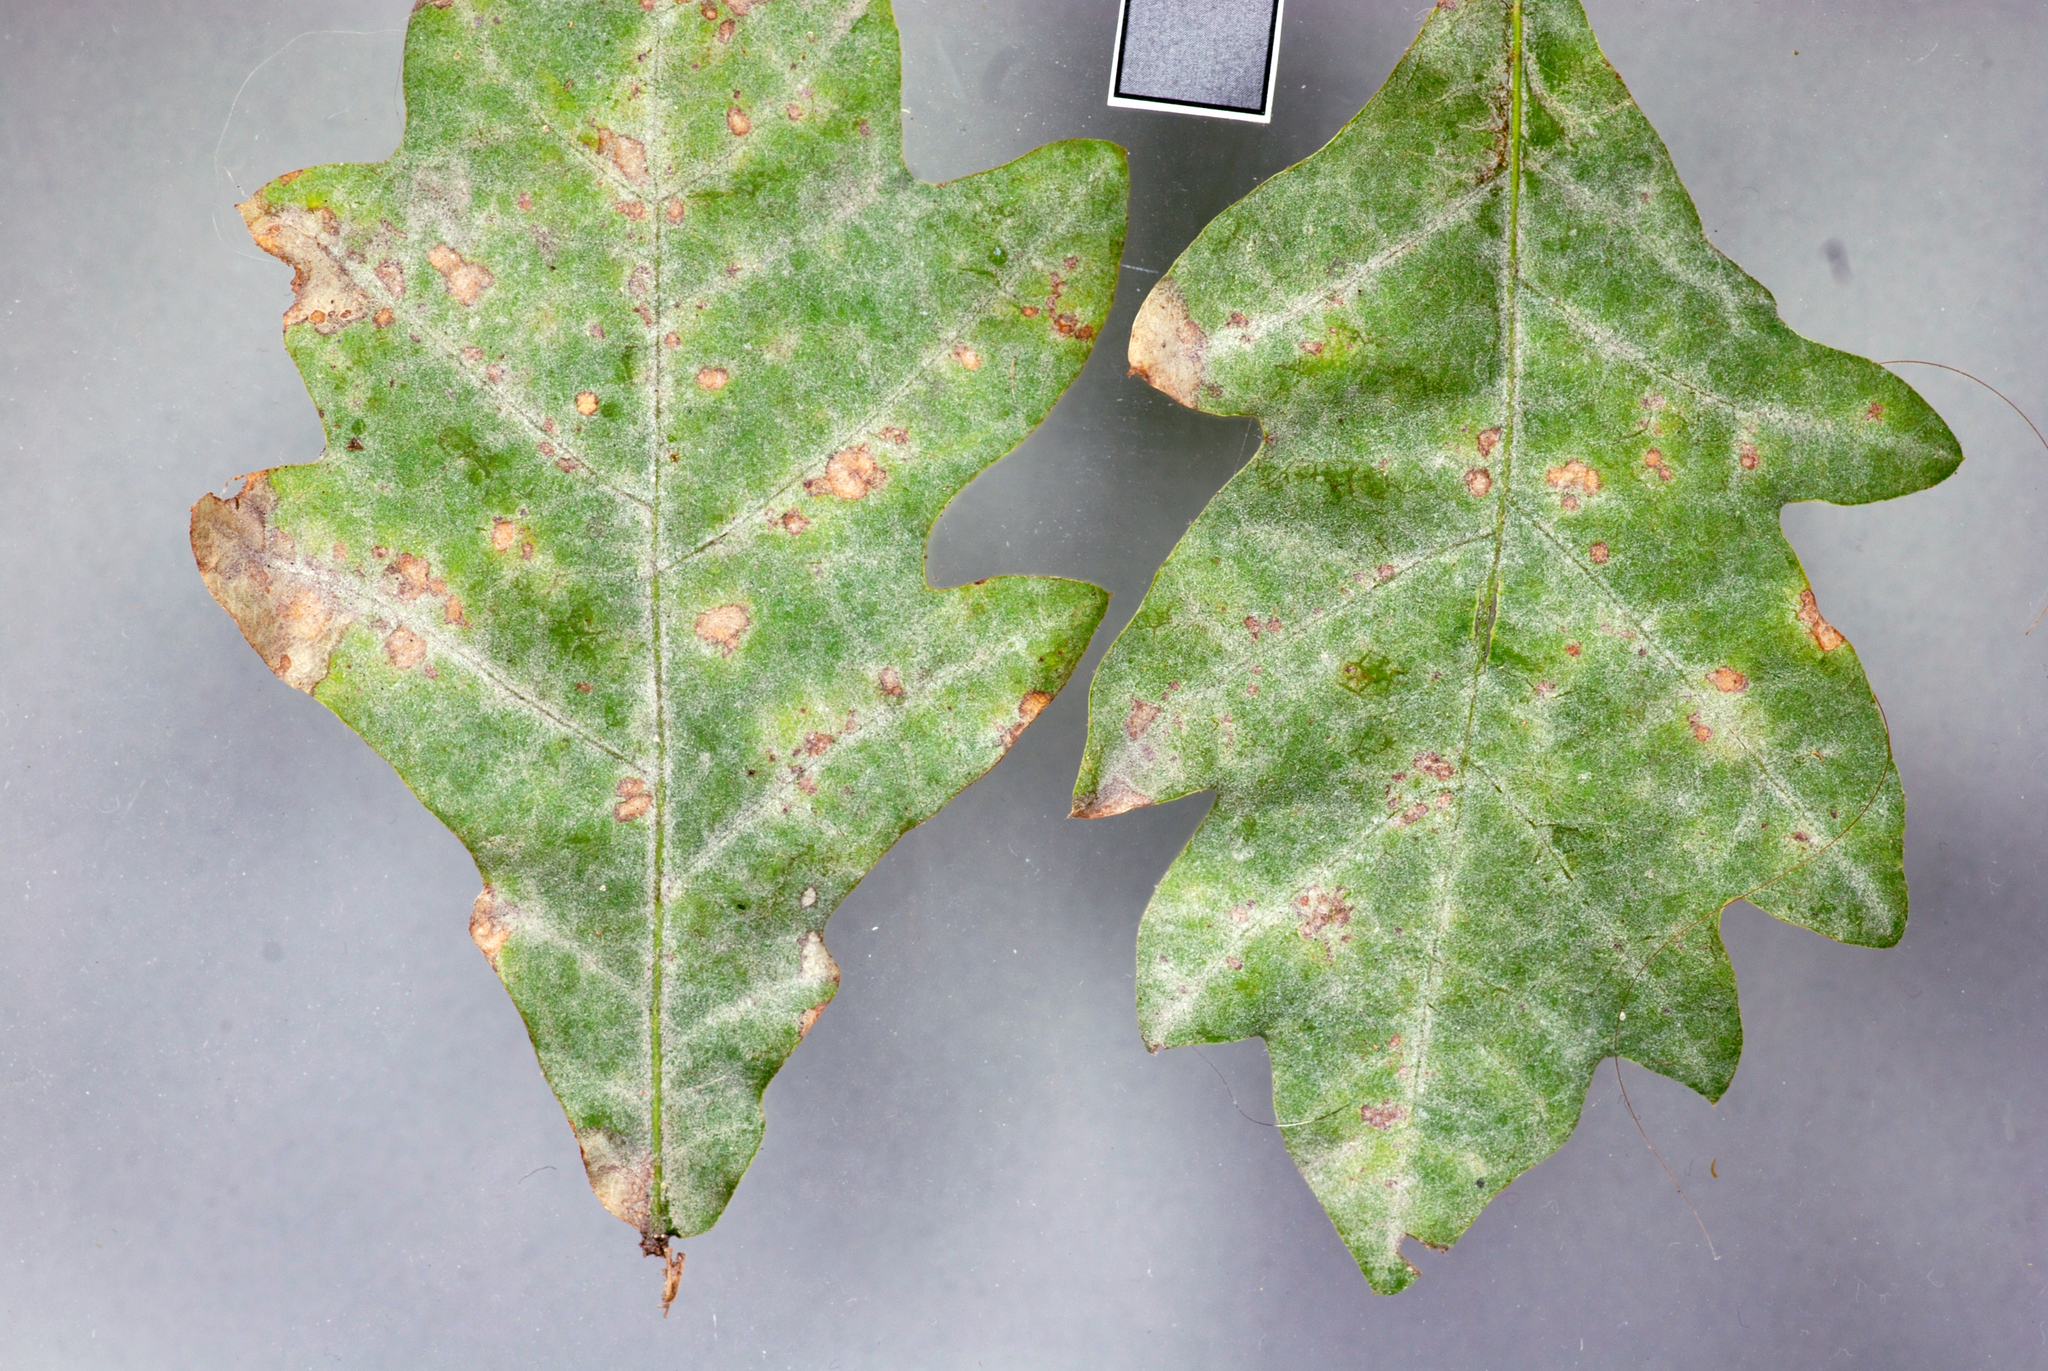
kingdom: Fungi
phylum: Ascomycota
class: Leotiomycetes
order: Helotiales
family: Erysiphaceae
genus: Erysiphe
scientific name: Erysiphe alphitoides
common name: Oak mildew
